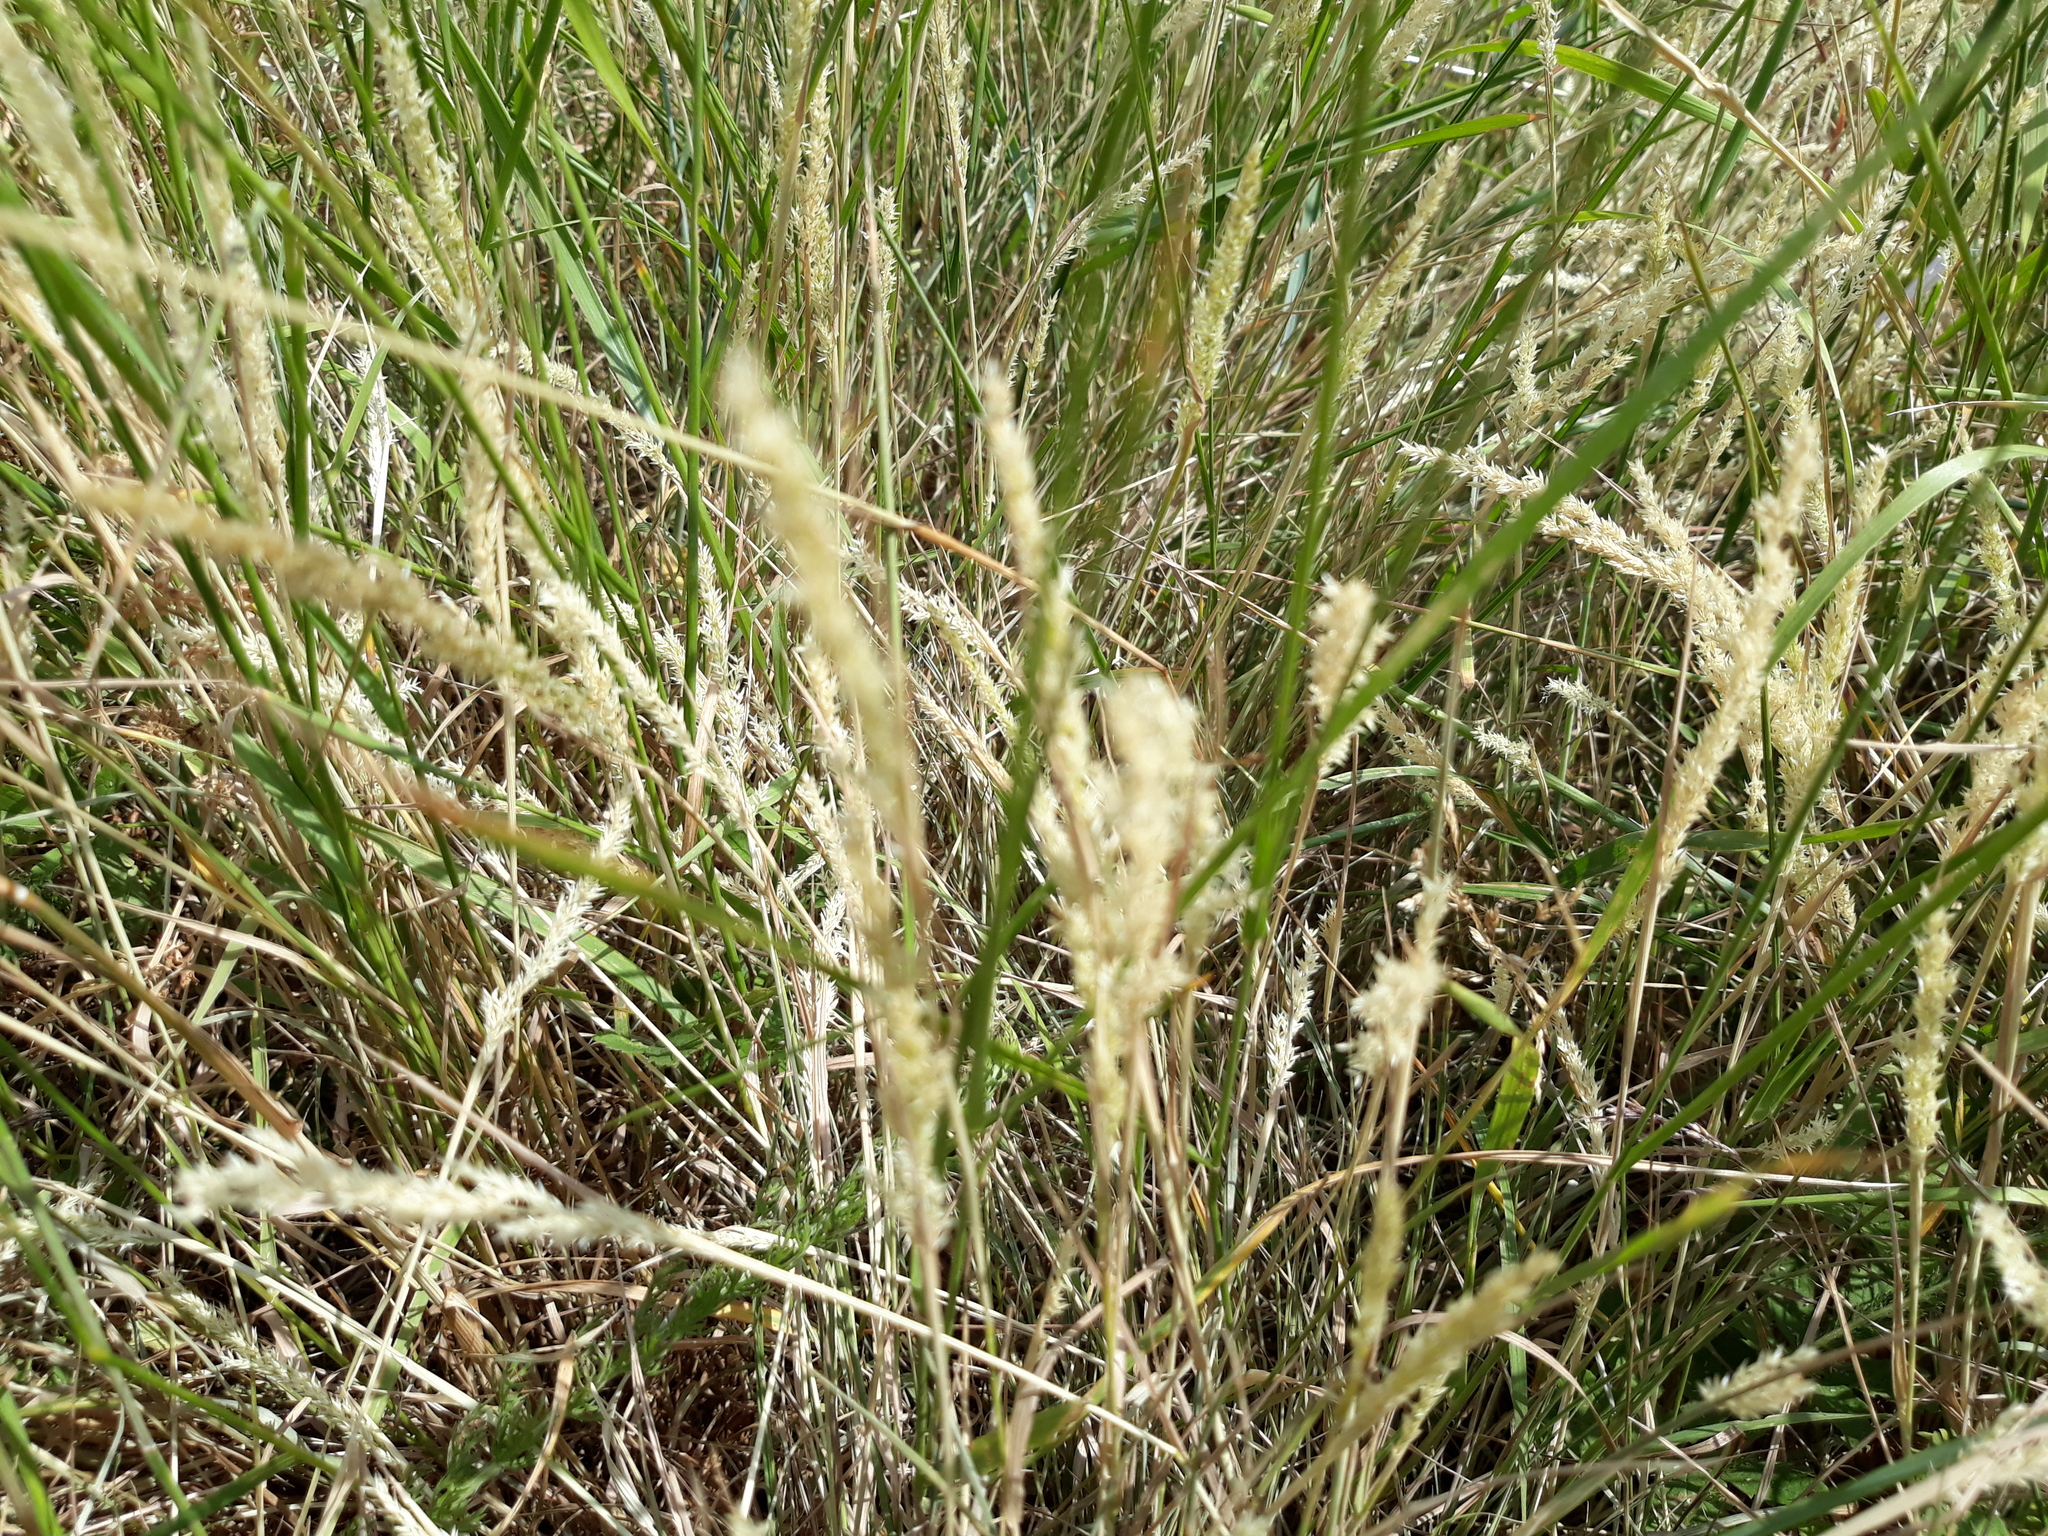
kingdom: Plantae
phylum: Tracheophyta
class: Liliopsida
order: Poales
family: Poaceae
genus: Holcus
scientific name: Holcus lanatus
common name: Yorkshire-fog
